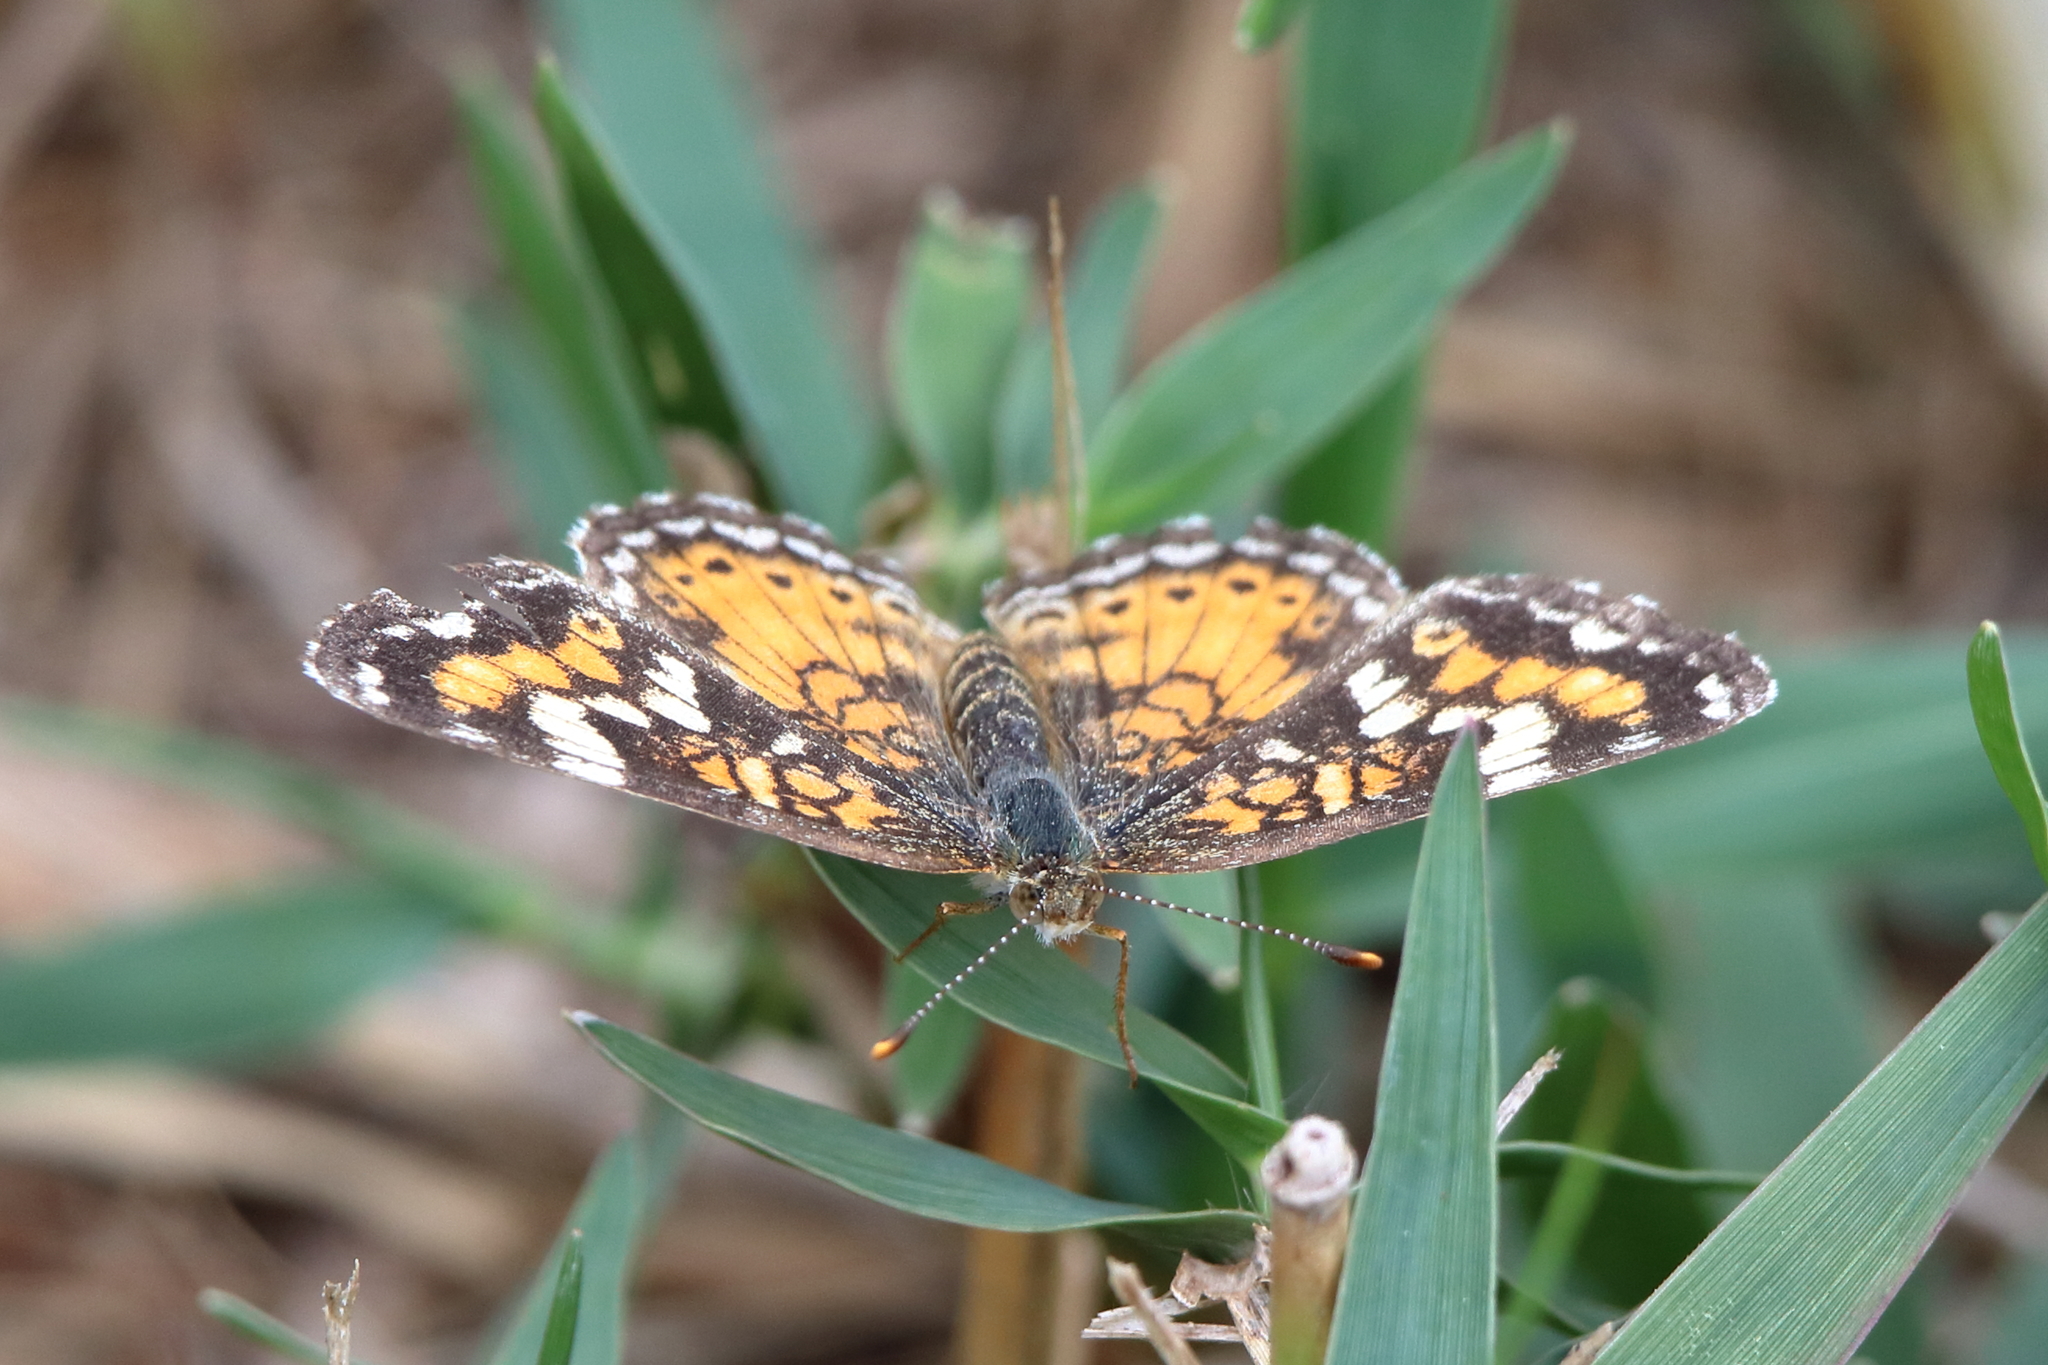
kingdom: Animalia
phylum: Arthropoda
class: Insecta
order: Lepidoptera
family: Nymphalidae
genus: Phyciodes
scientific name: Phyciodes phaon
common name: Phaon crescent
